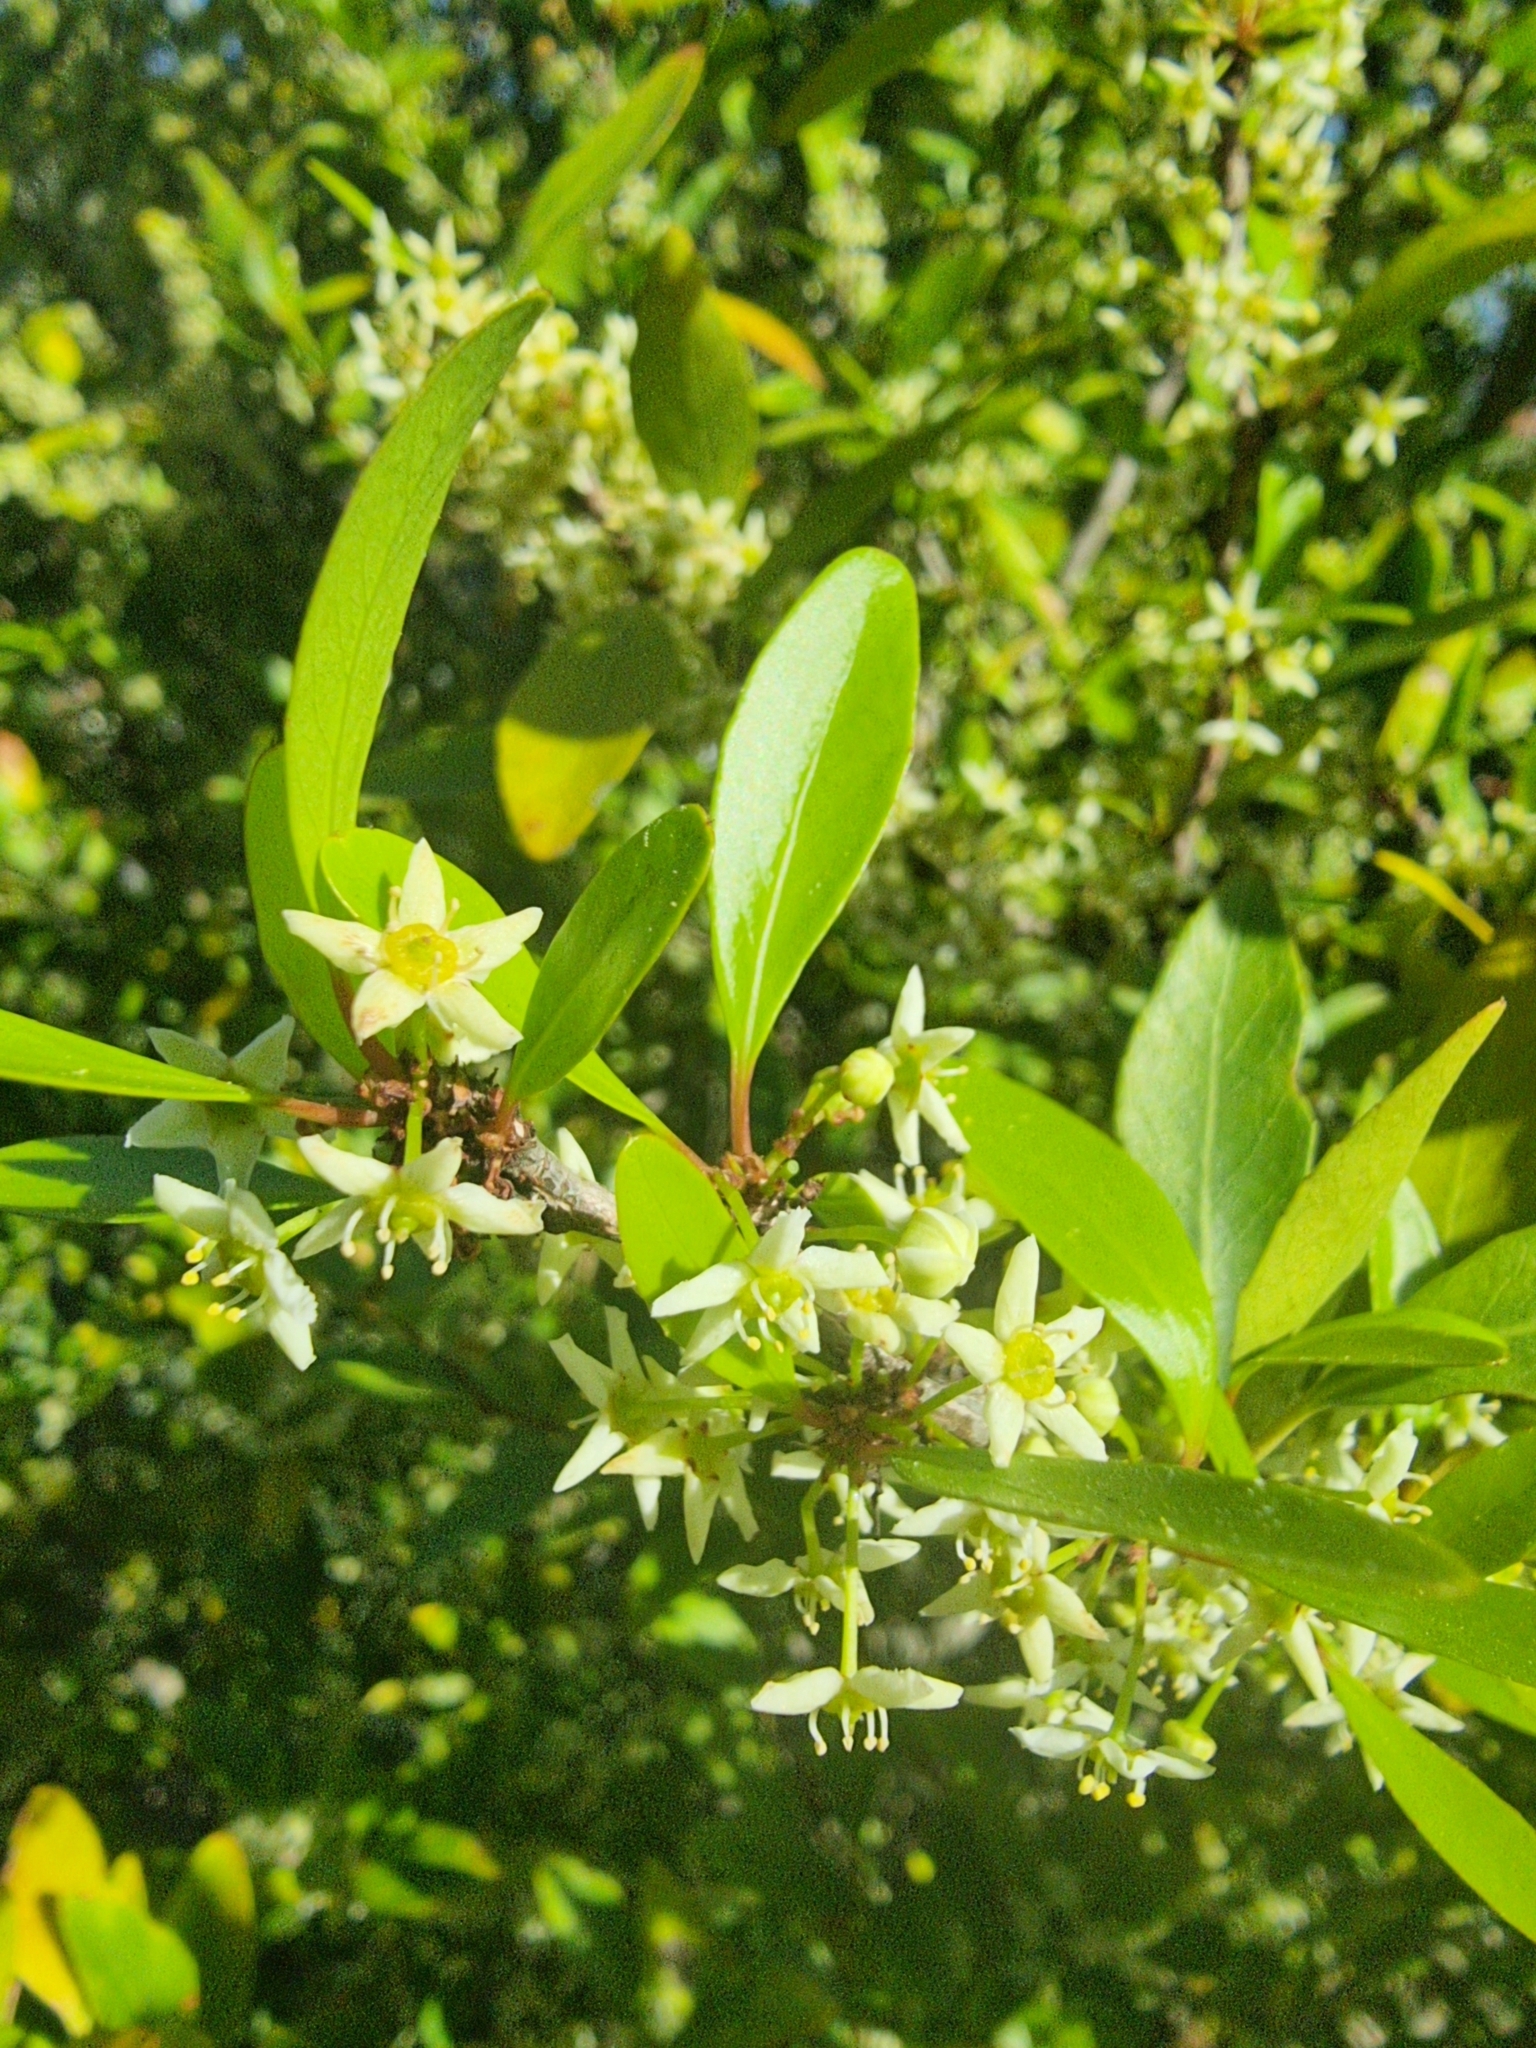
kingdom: Plantae
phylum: Tracheophyta
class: Magnoliopsida
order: Celastrales
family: Celastraceae
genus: Gymnosporia
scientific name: Gymnosporia dryandri
